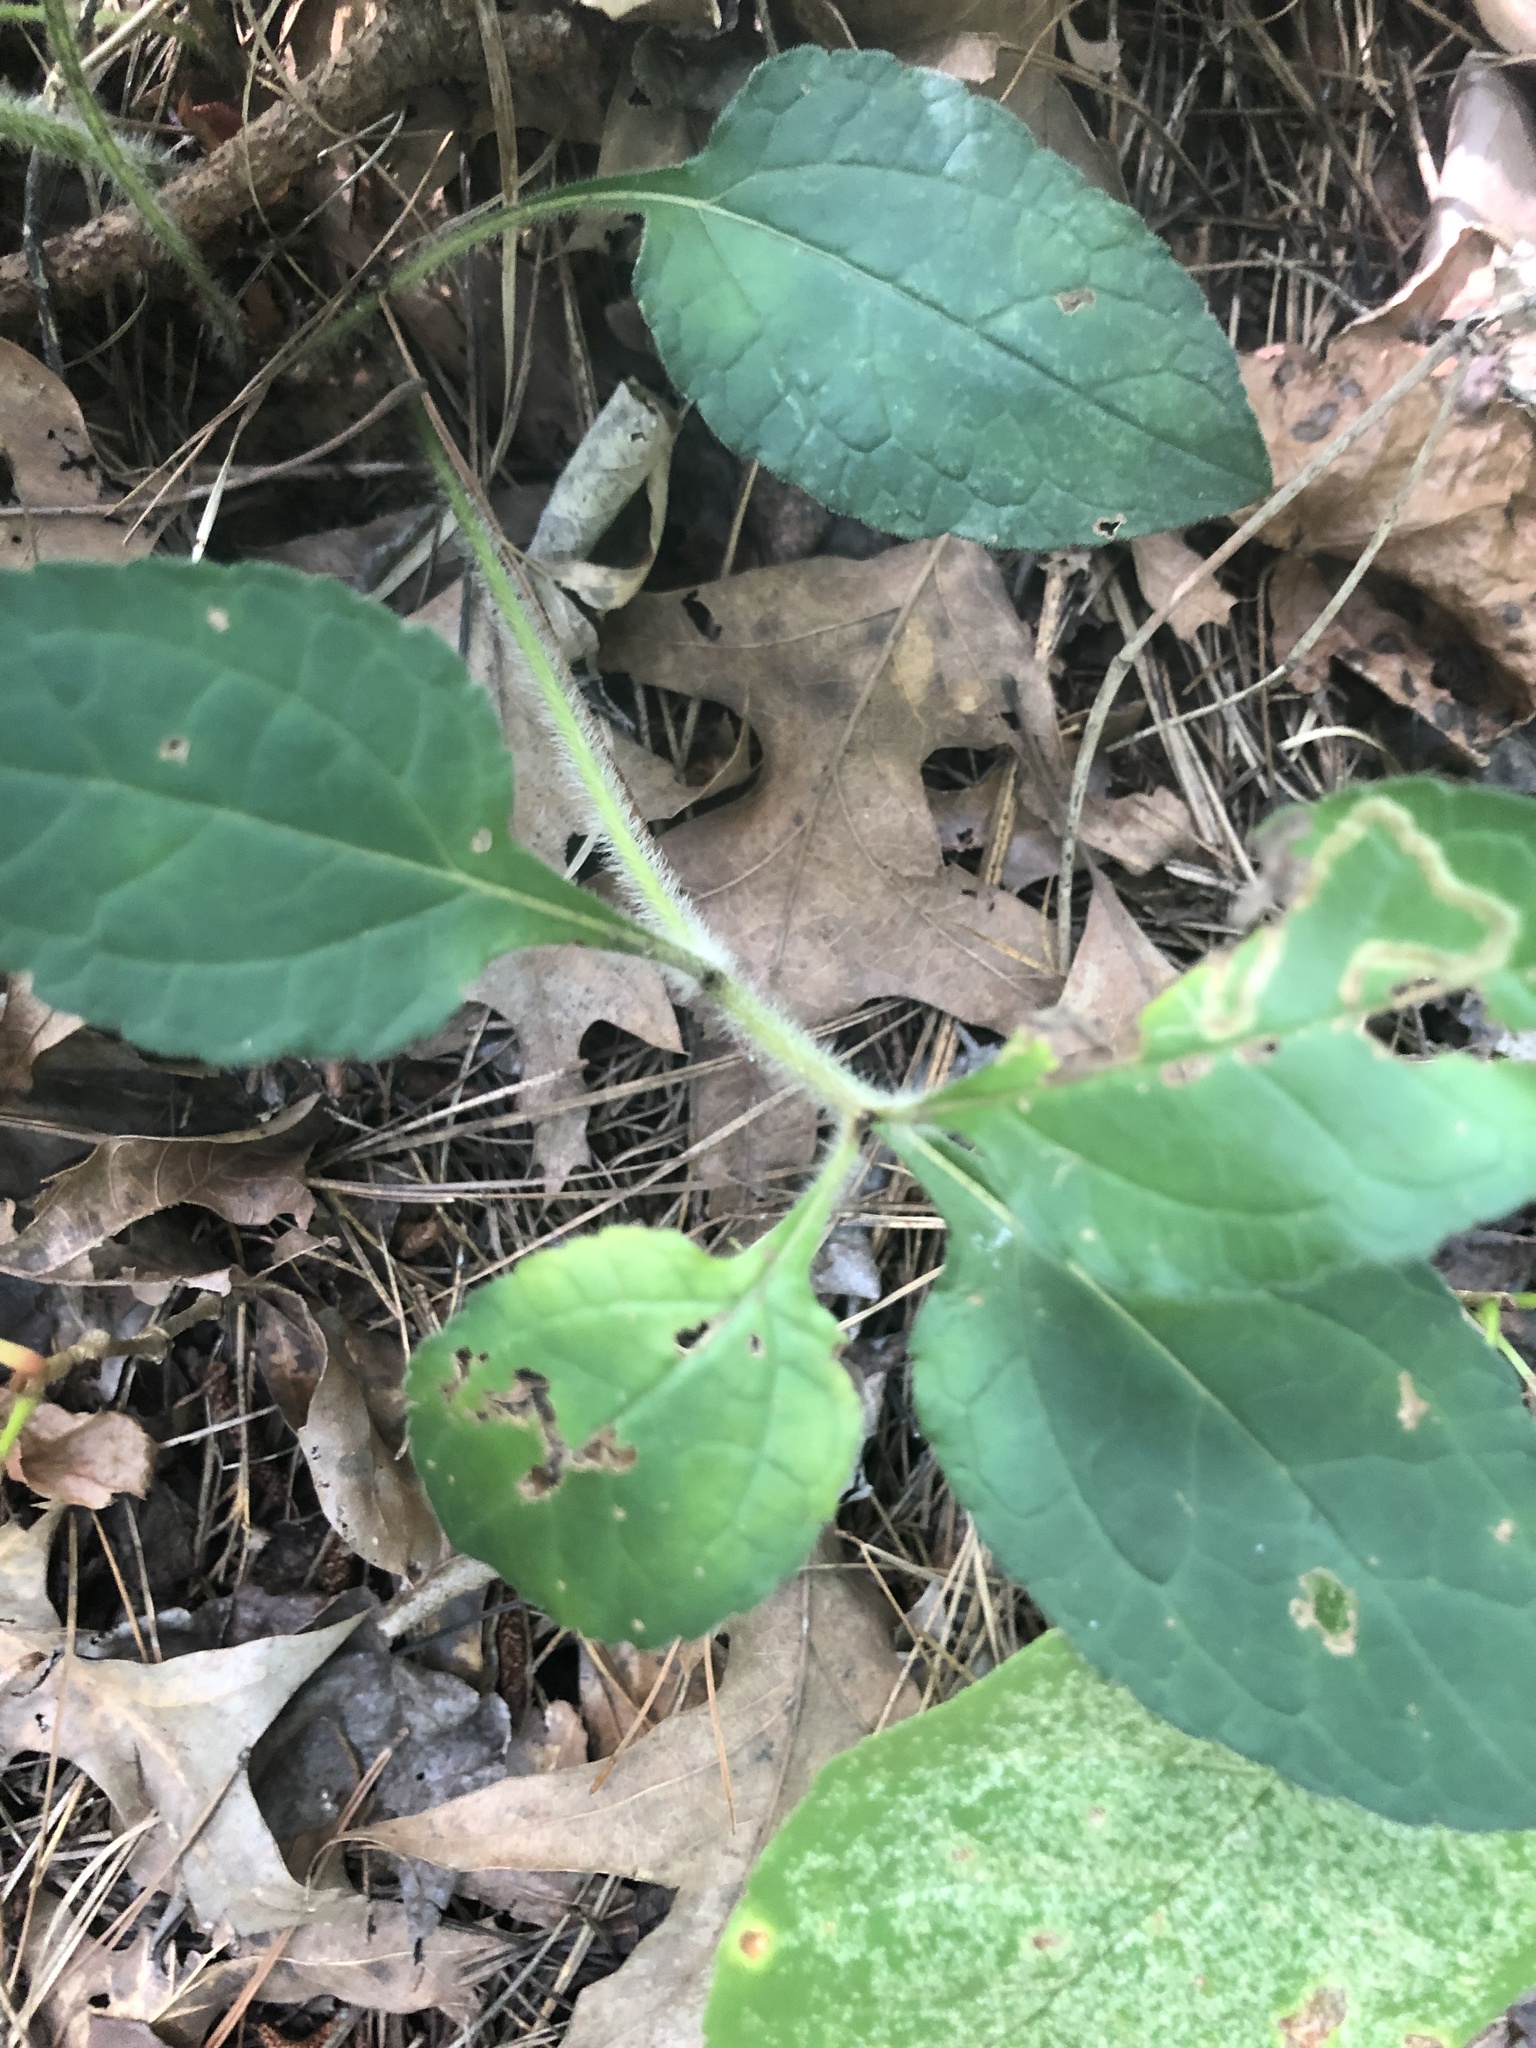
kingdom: Plantae
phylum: Tracheophyta
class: Magnoliopsida
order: Asterales
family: Asteraceae
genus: Chrysogonum
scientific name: Chrysogonum virginianum
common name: Golden-knee
